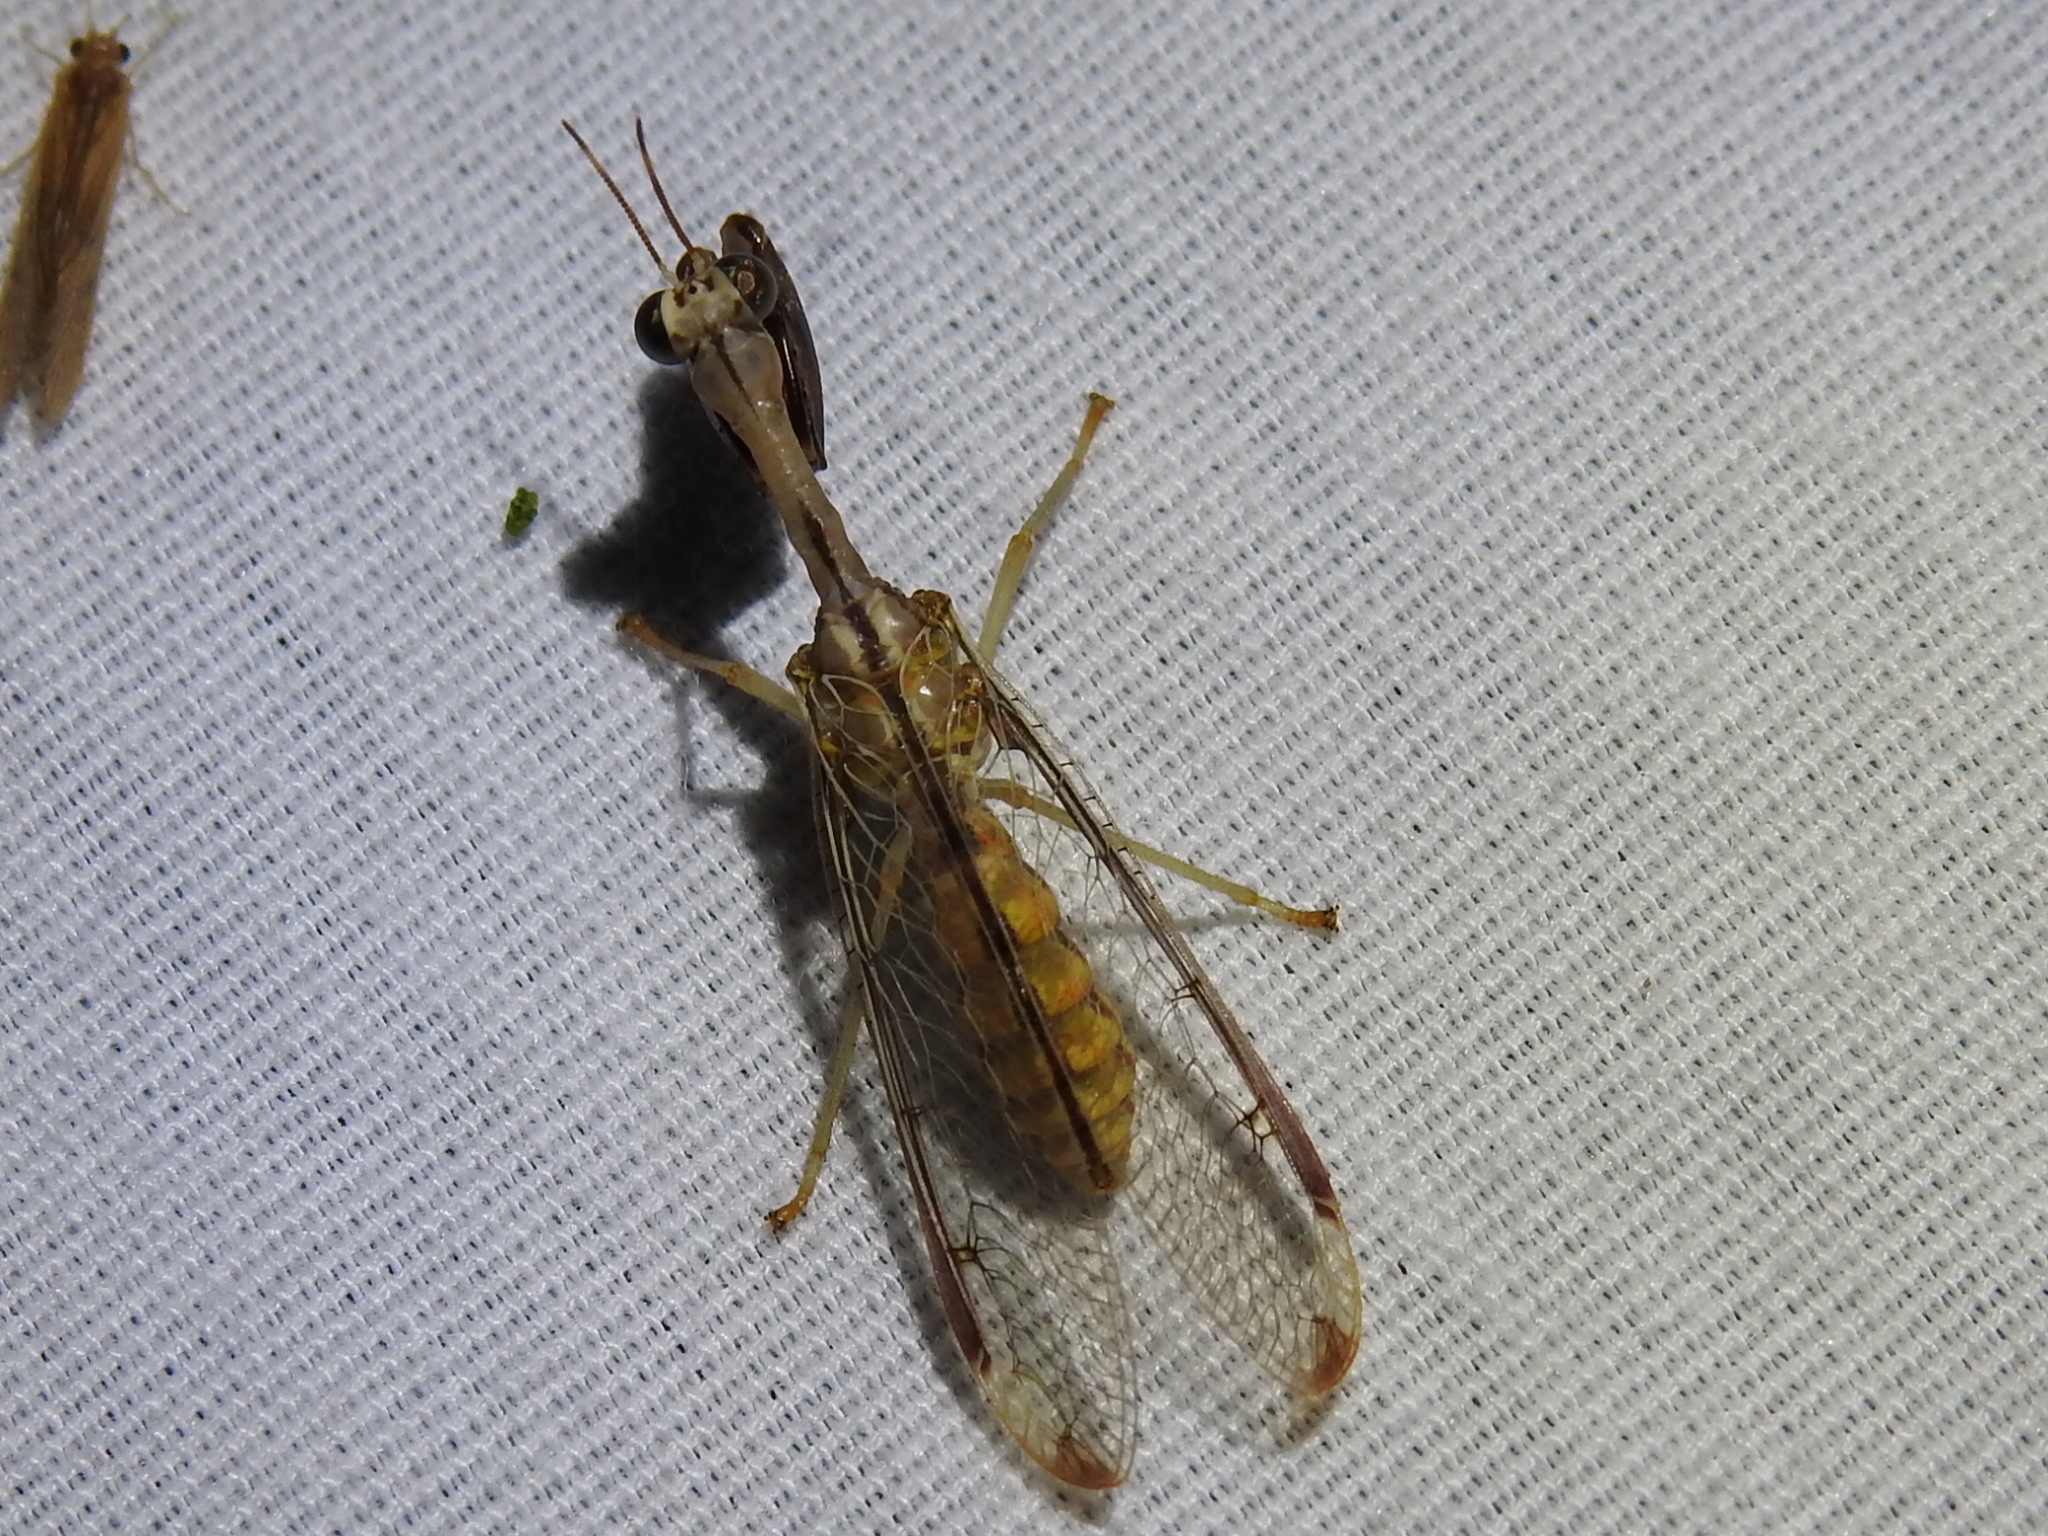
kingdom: Animalia
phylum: Arthropoda
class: Insecta
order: Neuroptera
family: Mantispidae
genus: Dicromantispa
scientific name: Dicromantispa interrupta
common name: Four-spotted mantidfly
